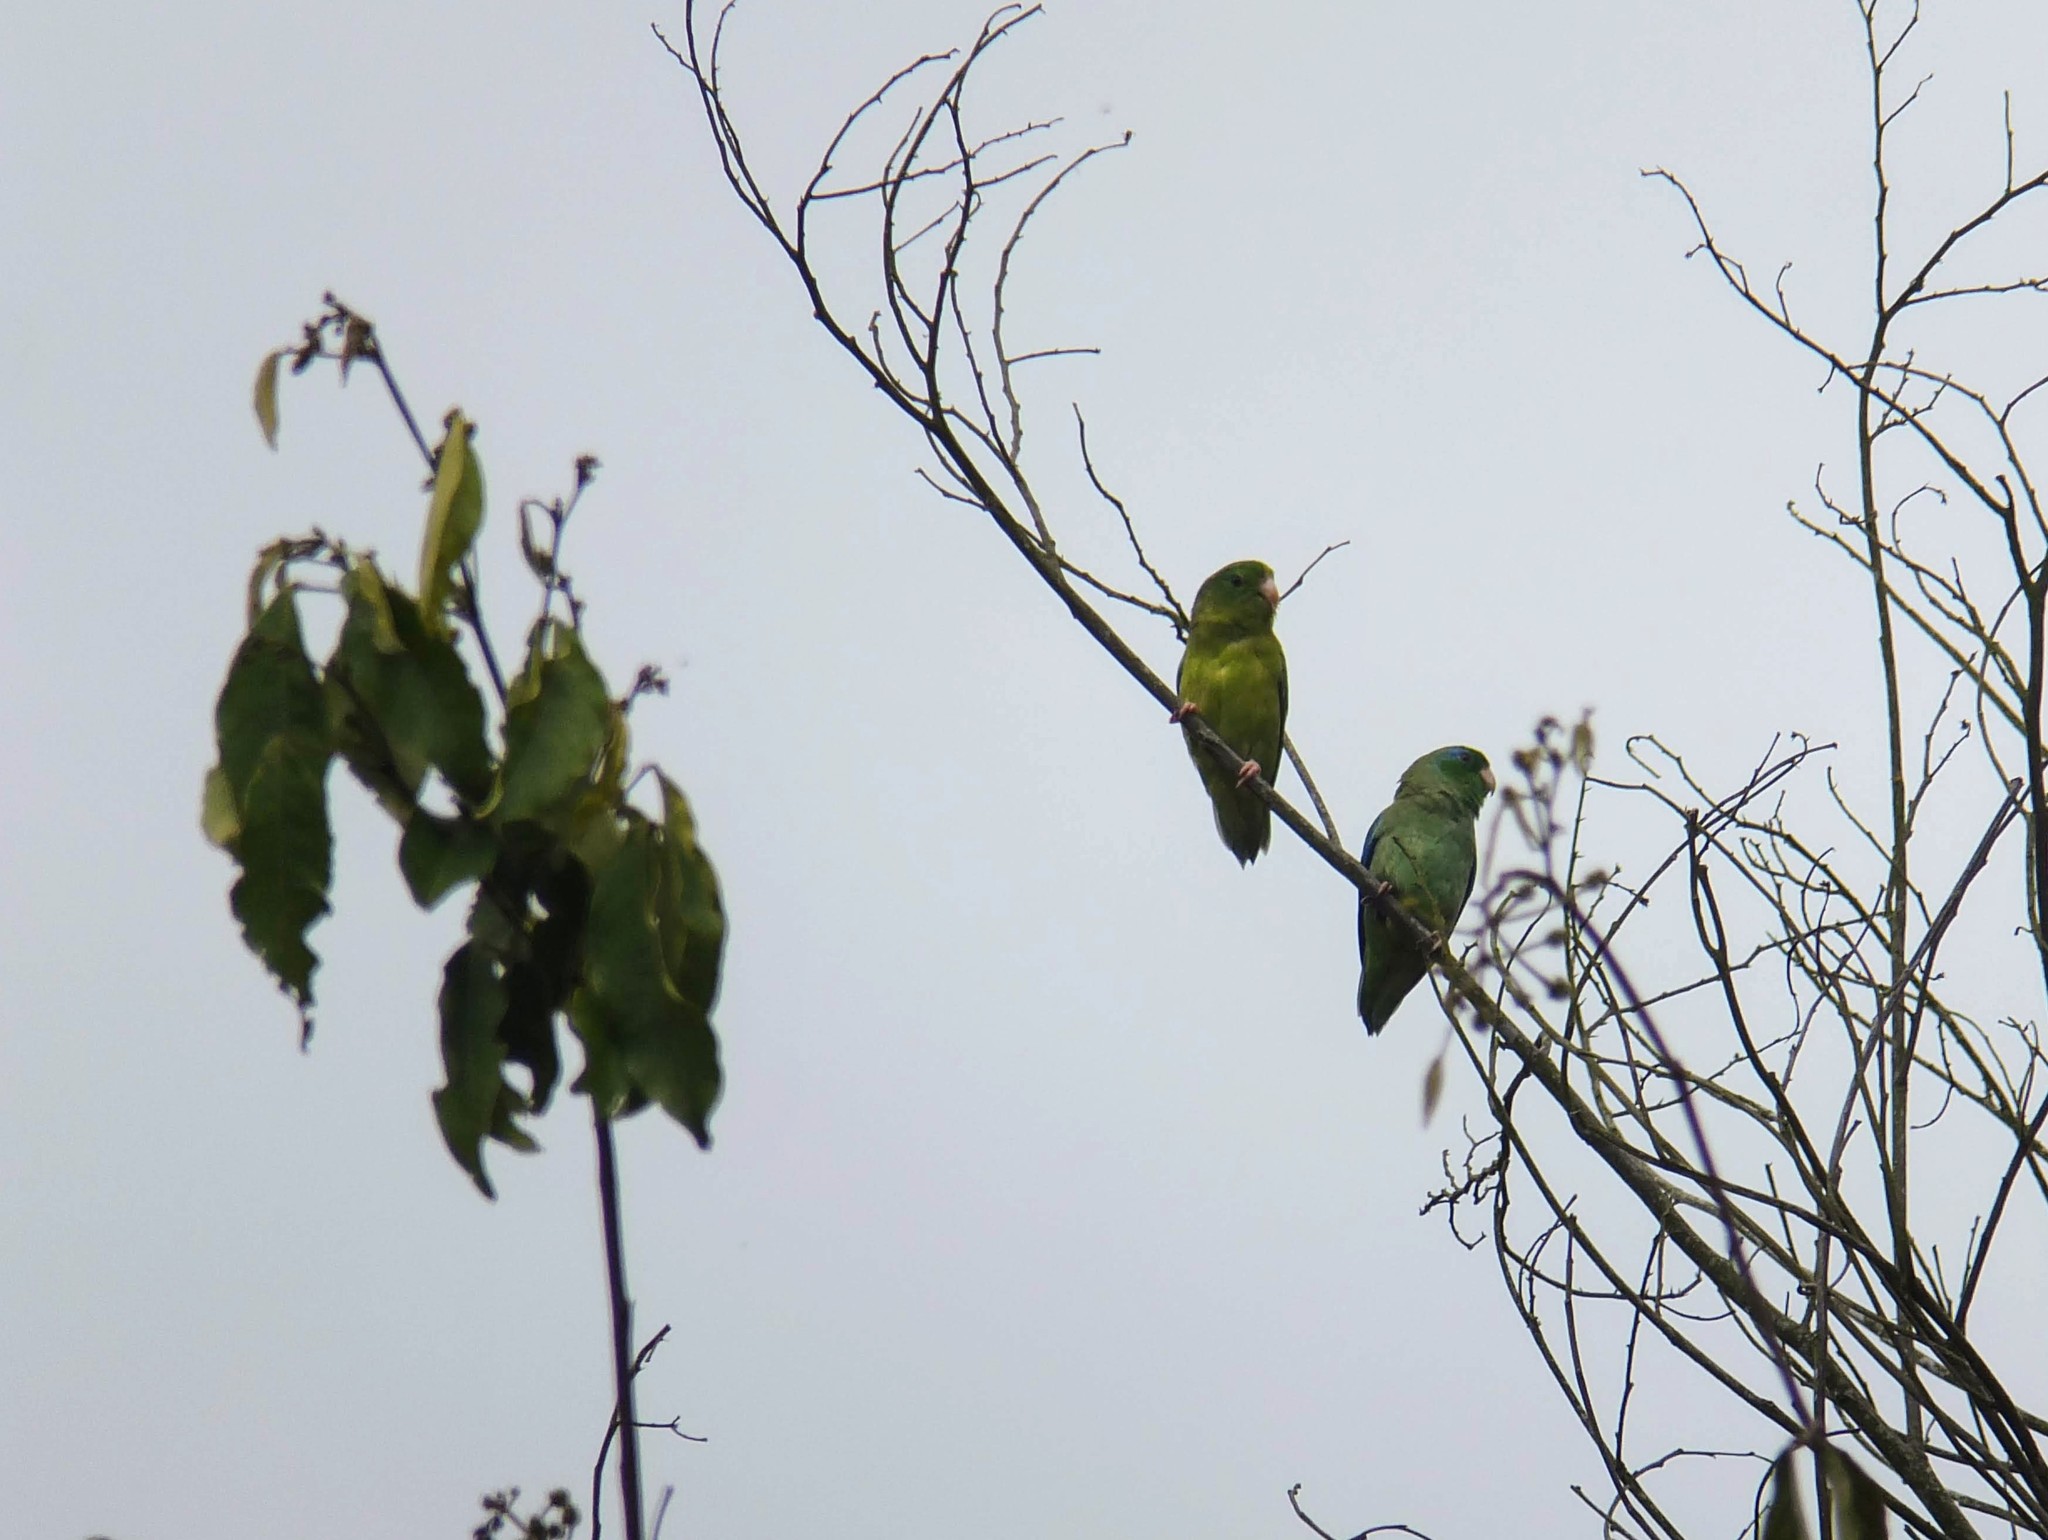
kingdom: Animalia
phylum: Chordata
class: Aves
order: Psittaciformes
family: Psittacidae
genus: Forpus
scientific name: Forpus conspicillatus
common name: Spectacled parrotlet
